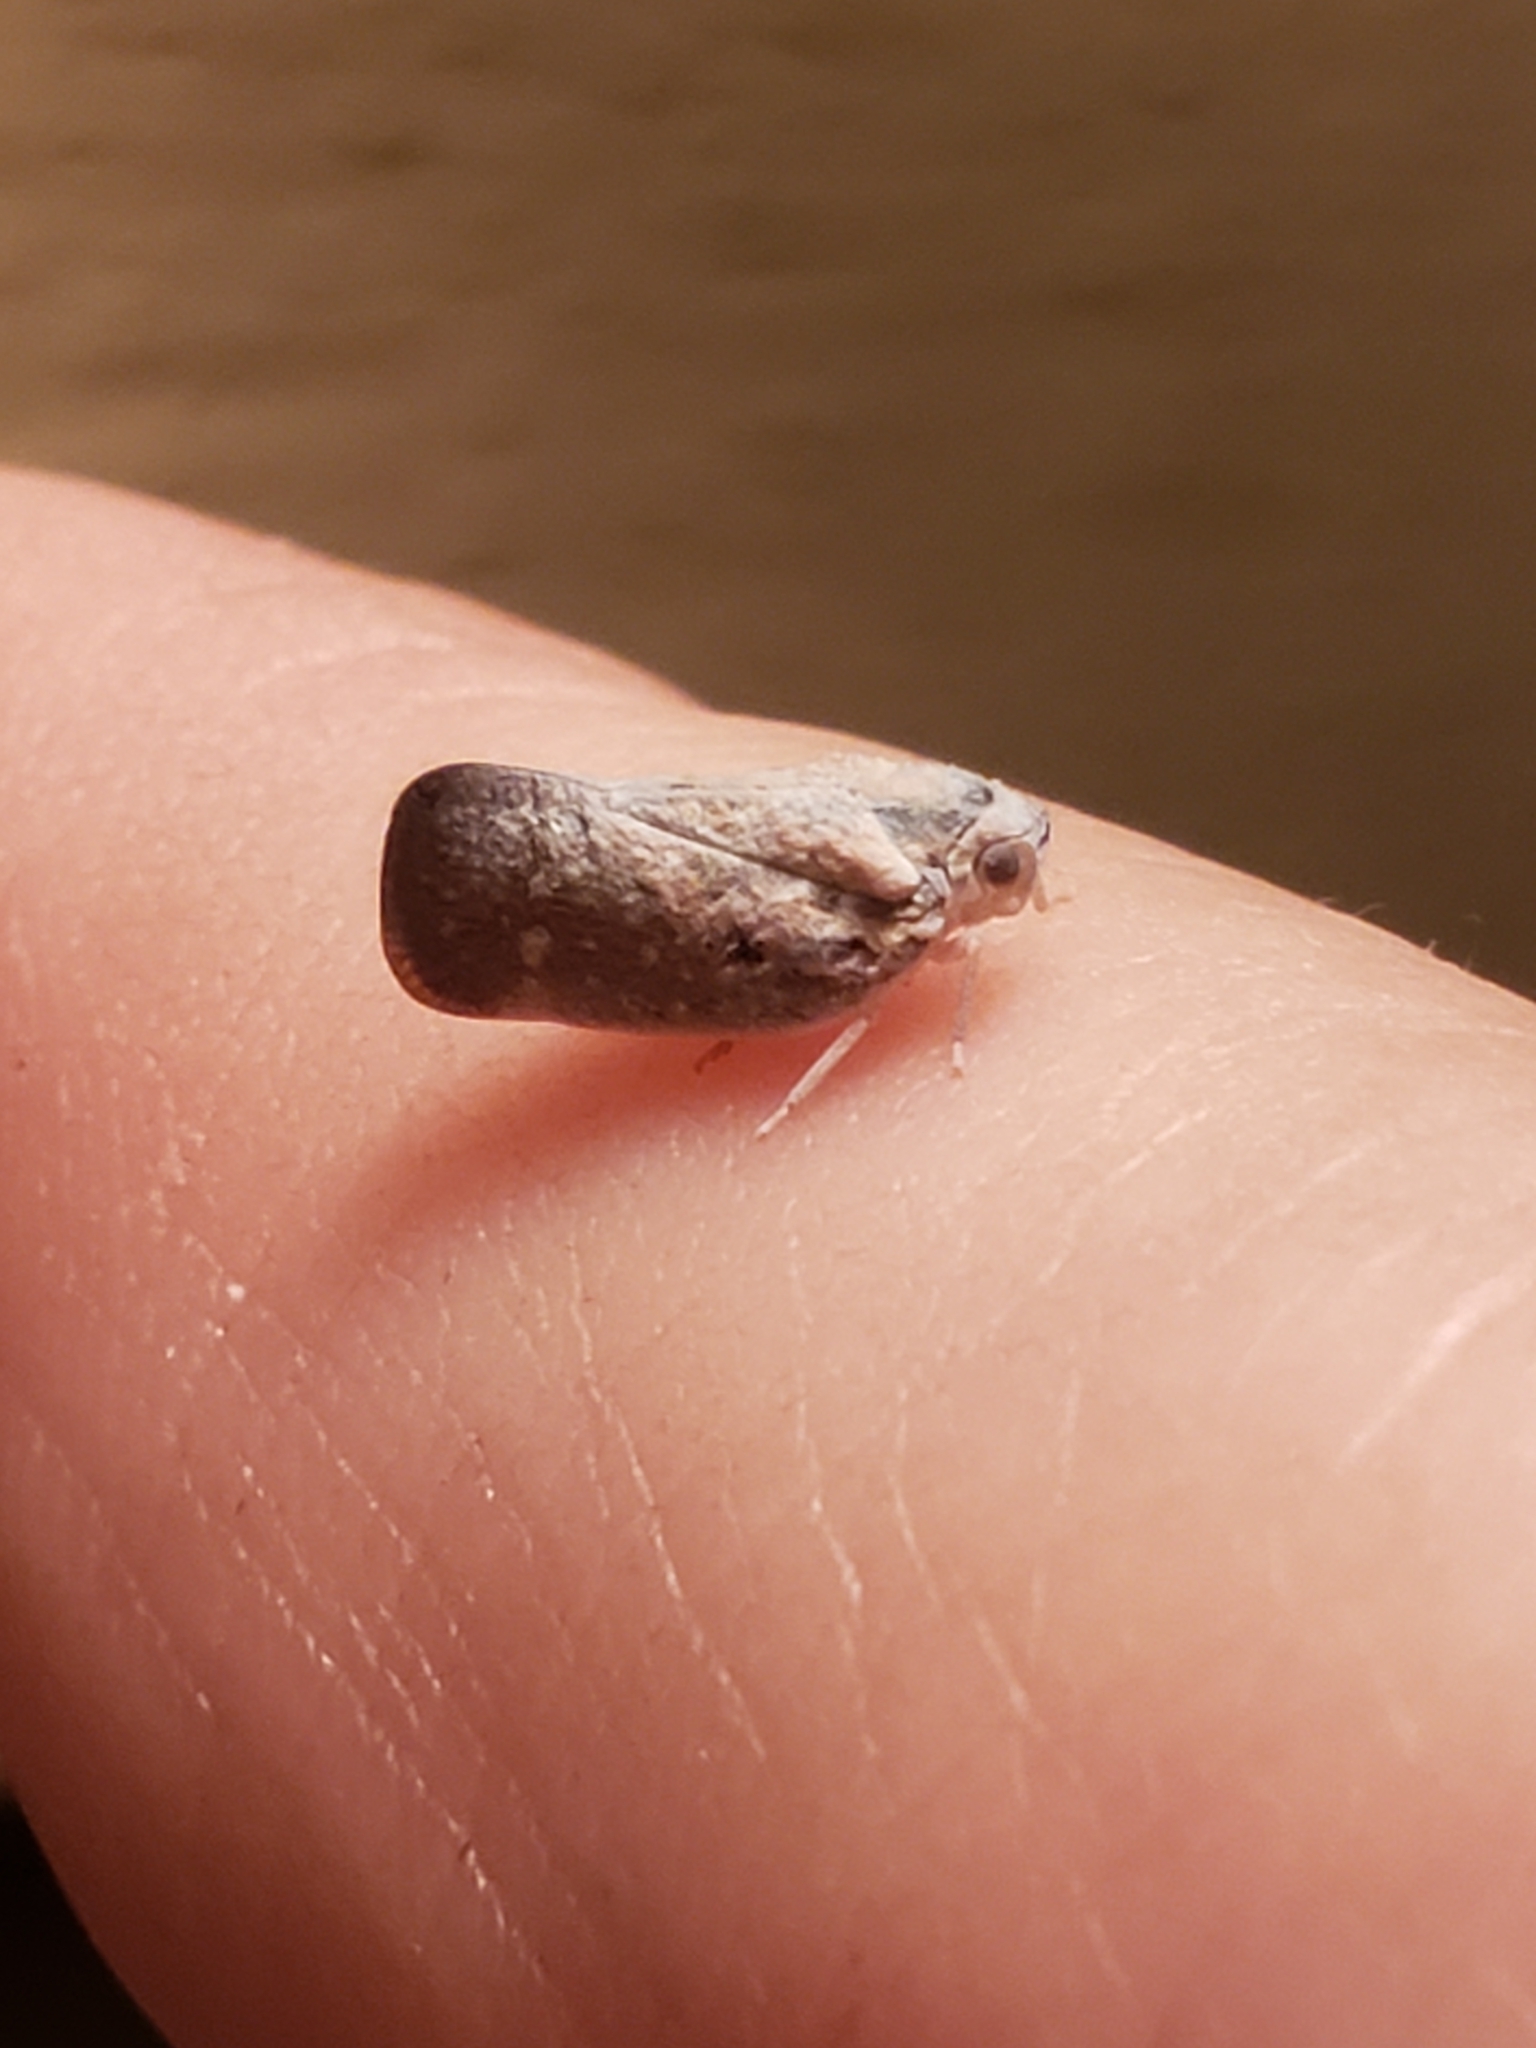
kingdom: Animalia
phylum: Arthropoda
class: Insecta
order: Hemiptera
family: Flatidae
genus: Metcalfa
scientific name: Metcalfa pruinosa
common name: Citrus flatid planthopper
